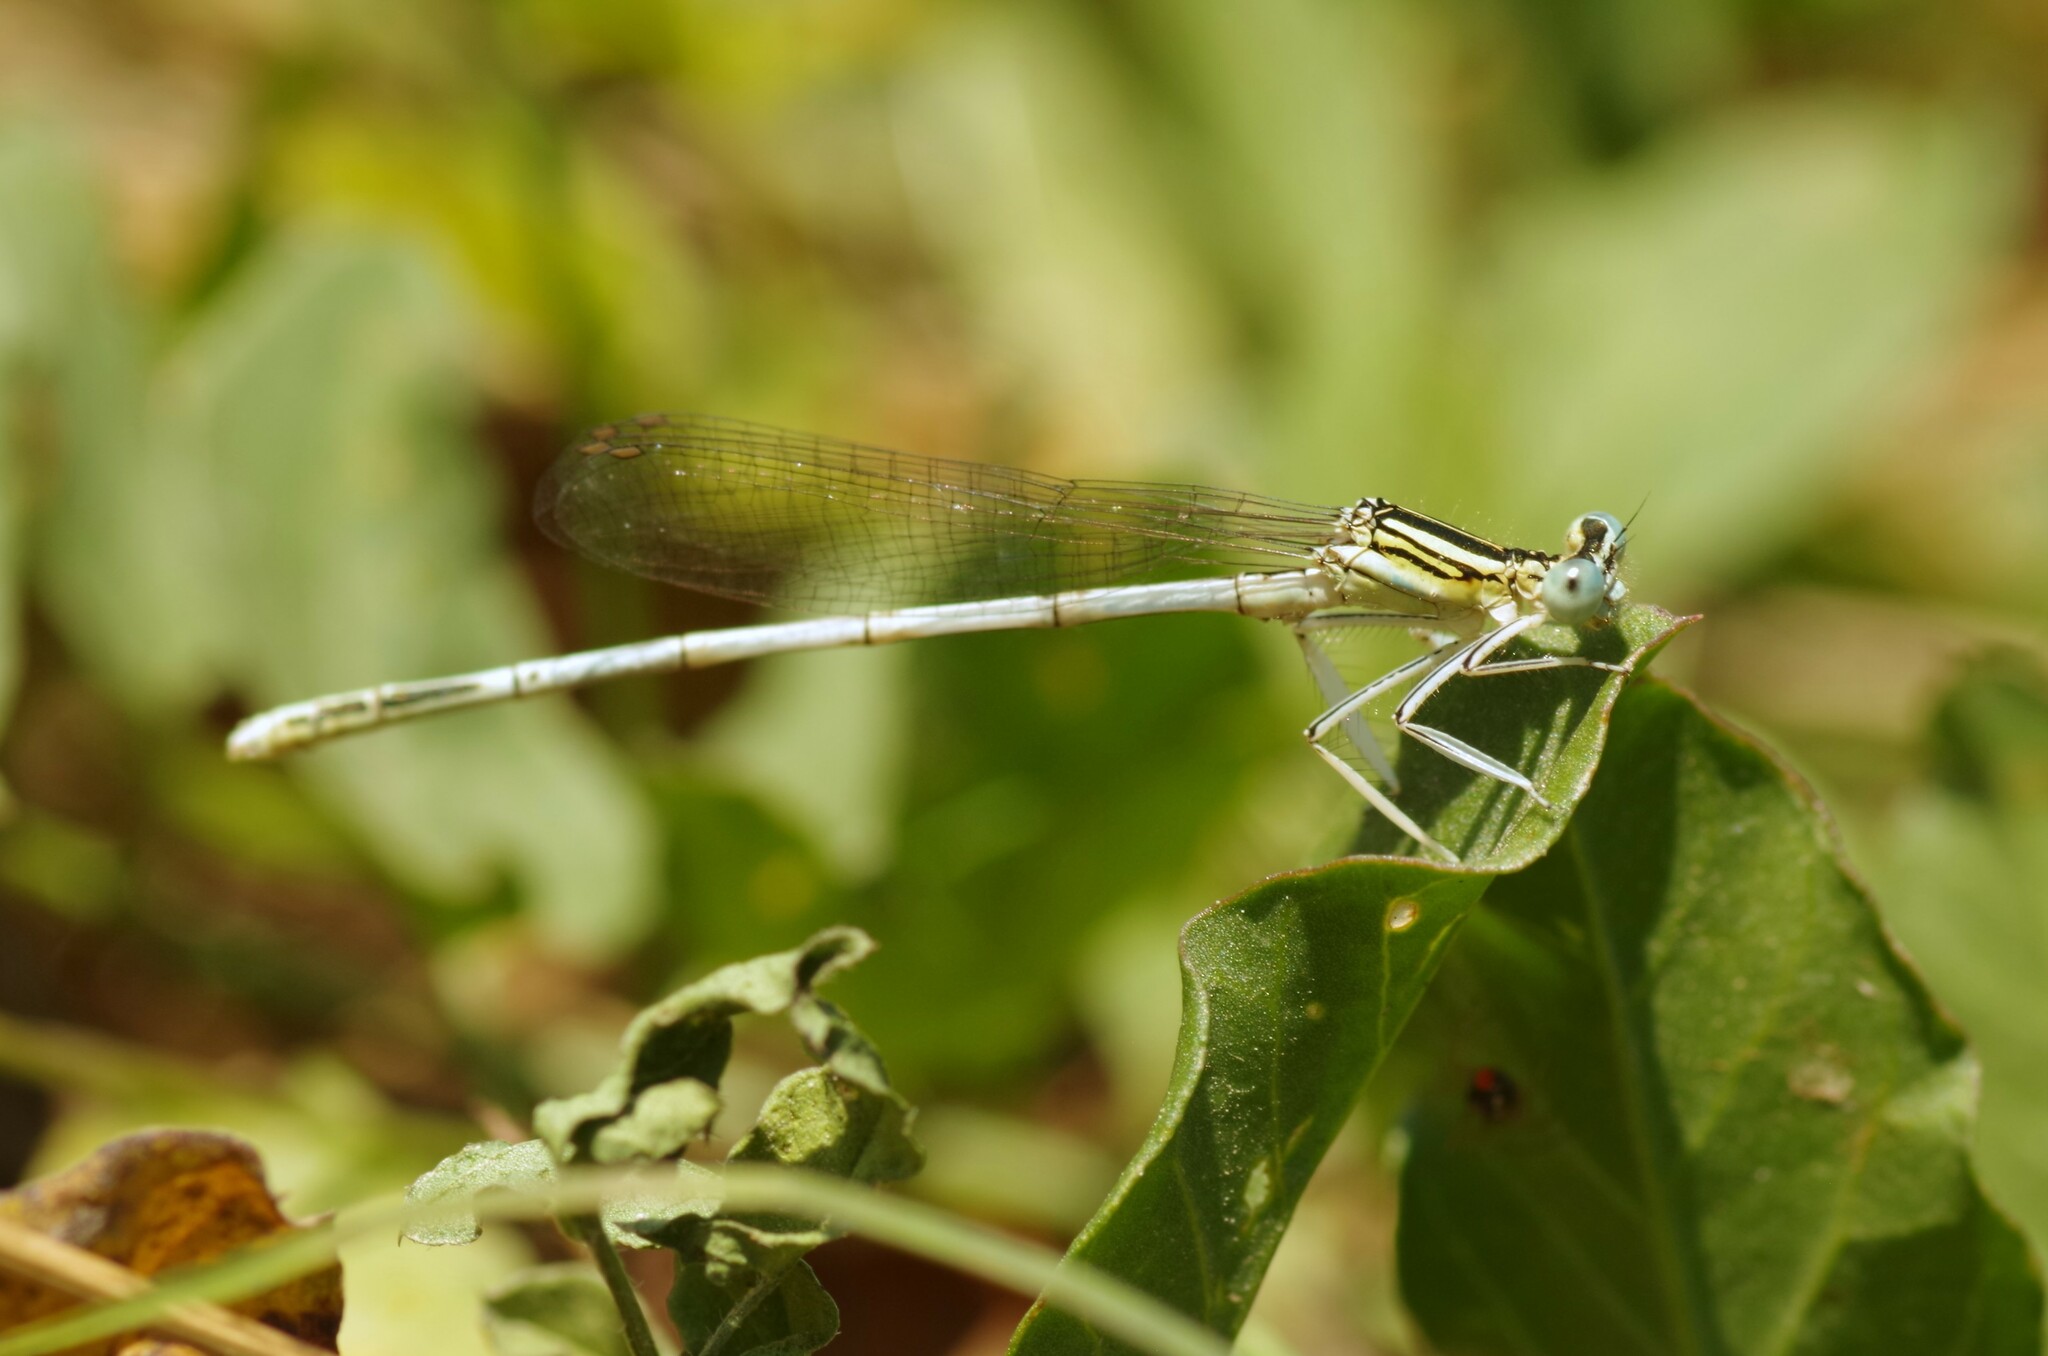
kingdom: Animalia
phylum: Arthropoda
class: Insecta
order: Odonata
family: Platycnemididae
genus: Platycnemis
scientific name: Platycnemis latipes
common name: White featherleg
